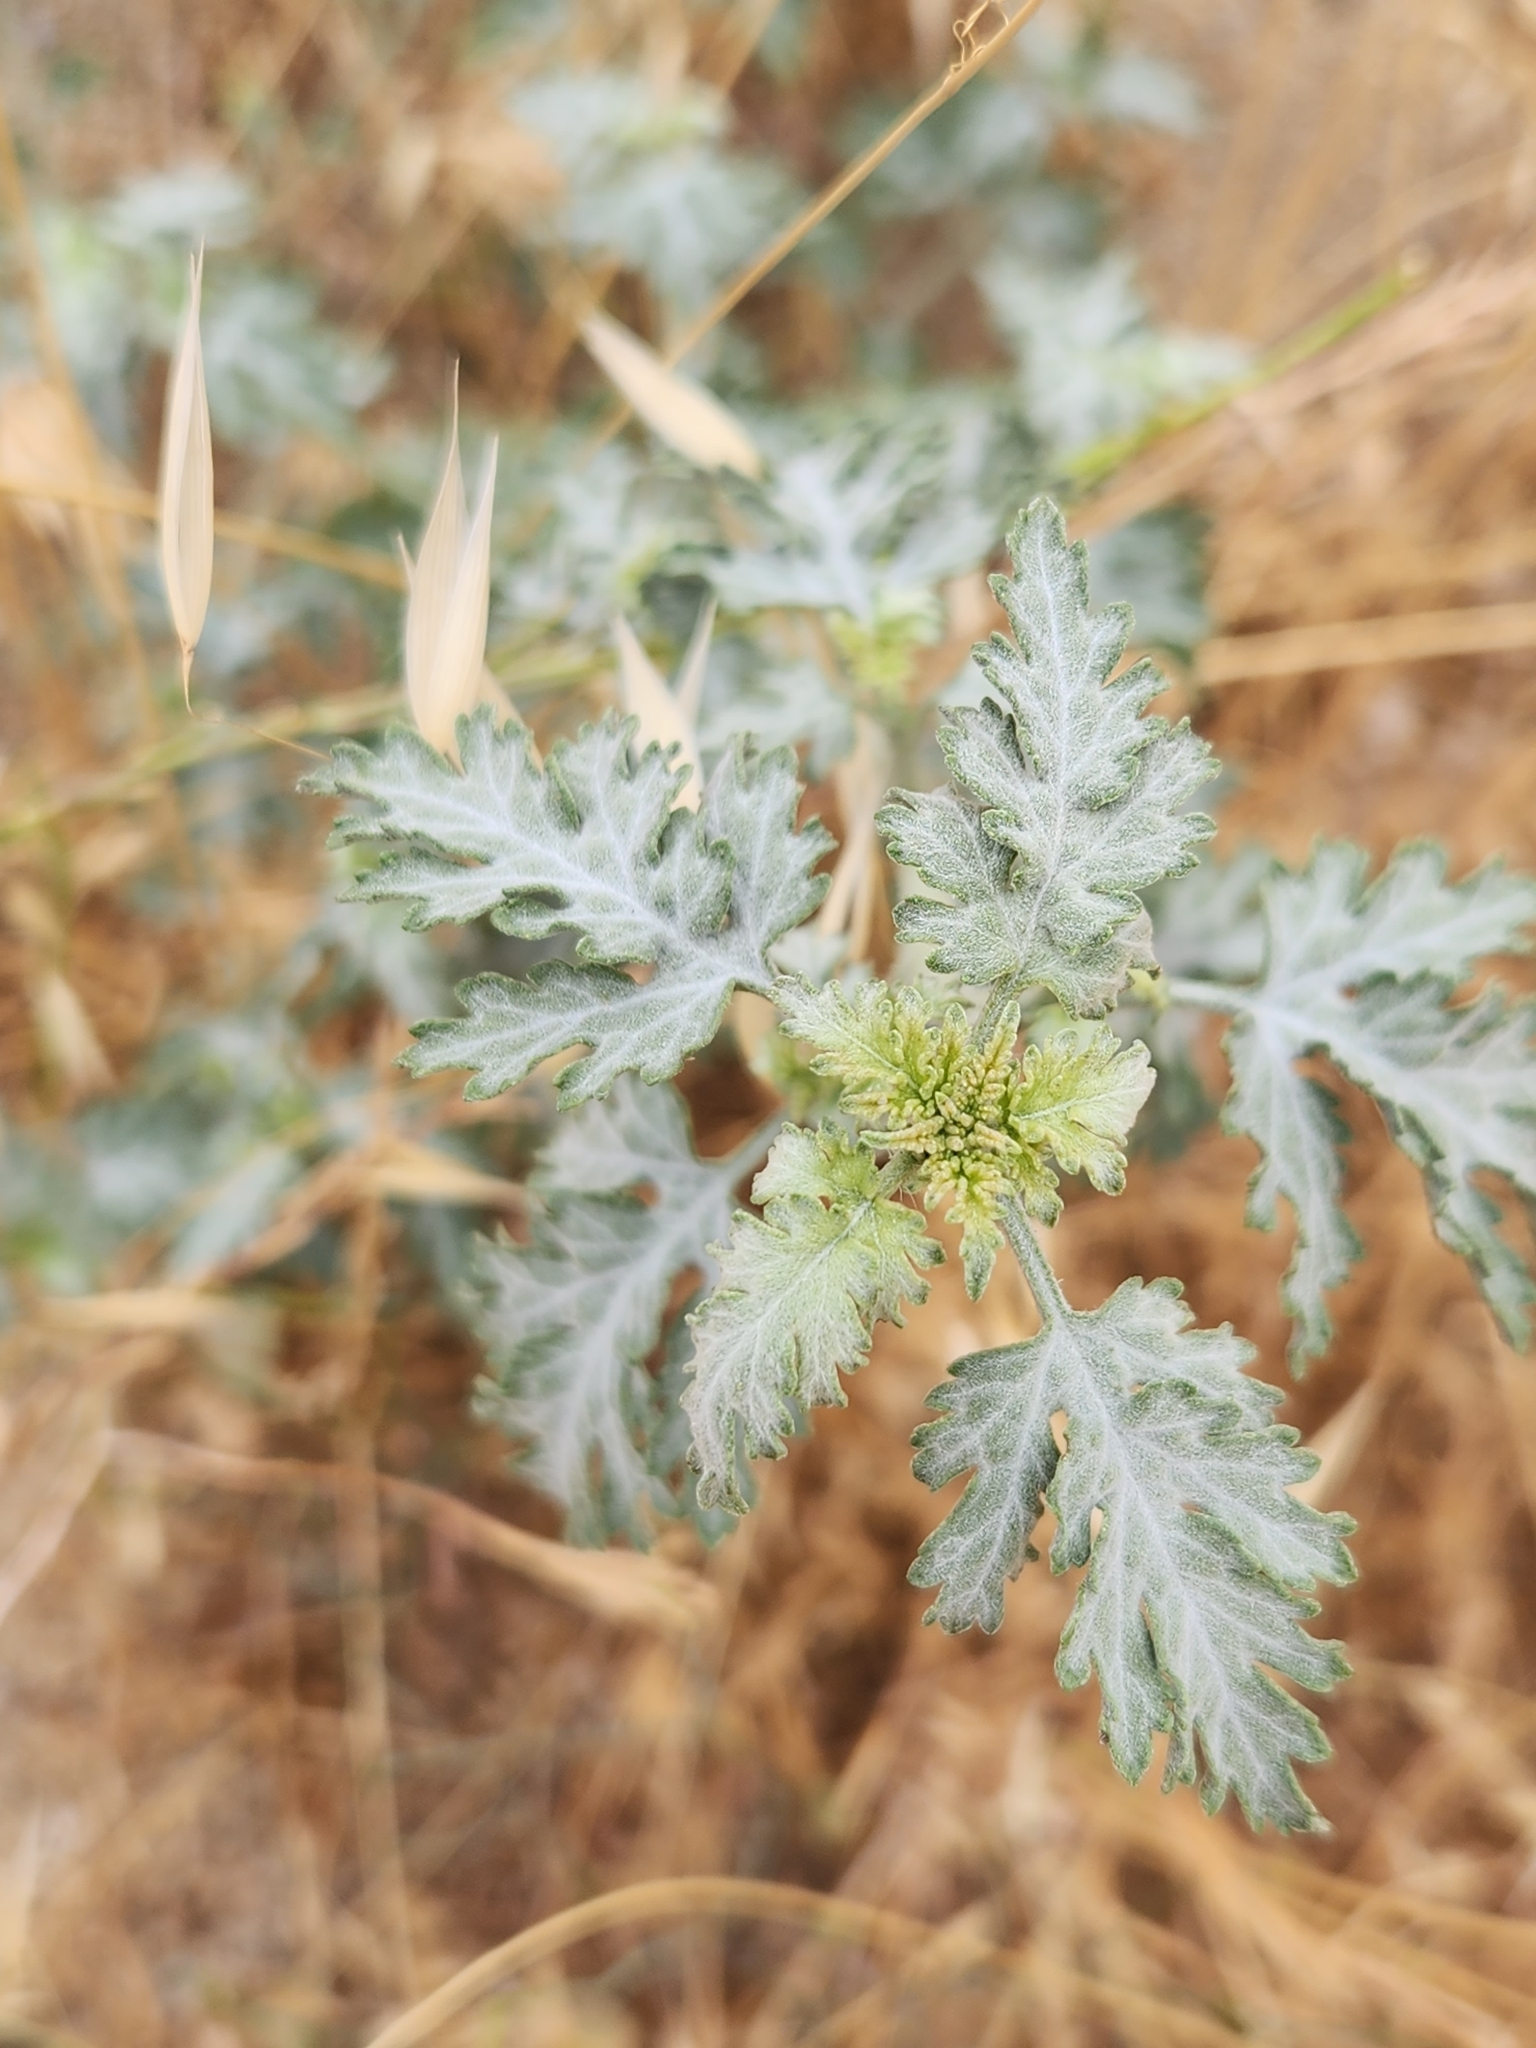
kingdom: Plantae
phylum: Tracheophyta
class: Magnoliopsida
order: Asterales
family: Asteraceae
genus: Ambrosia
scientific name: Ambrosia acanthicarpa
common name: Hooker's bur ragweed
